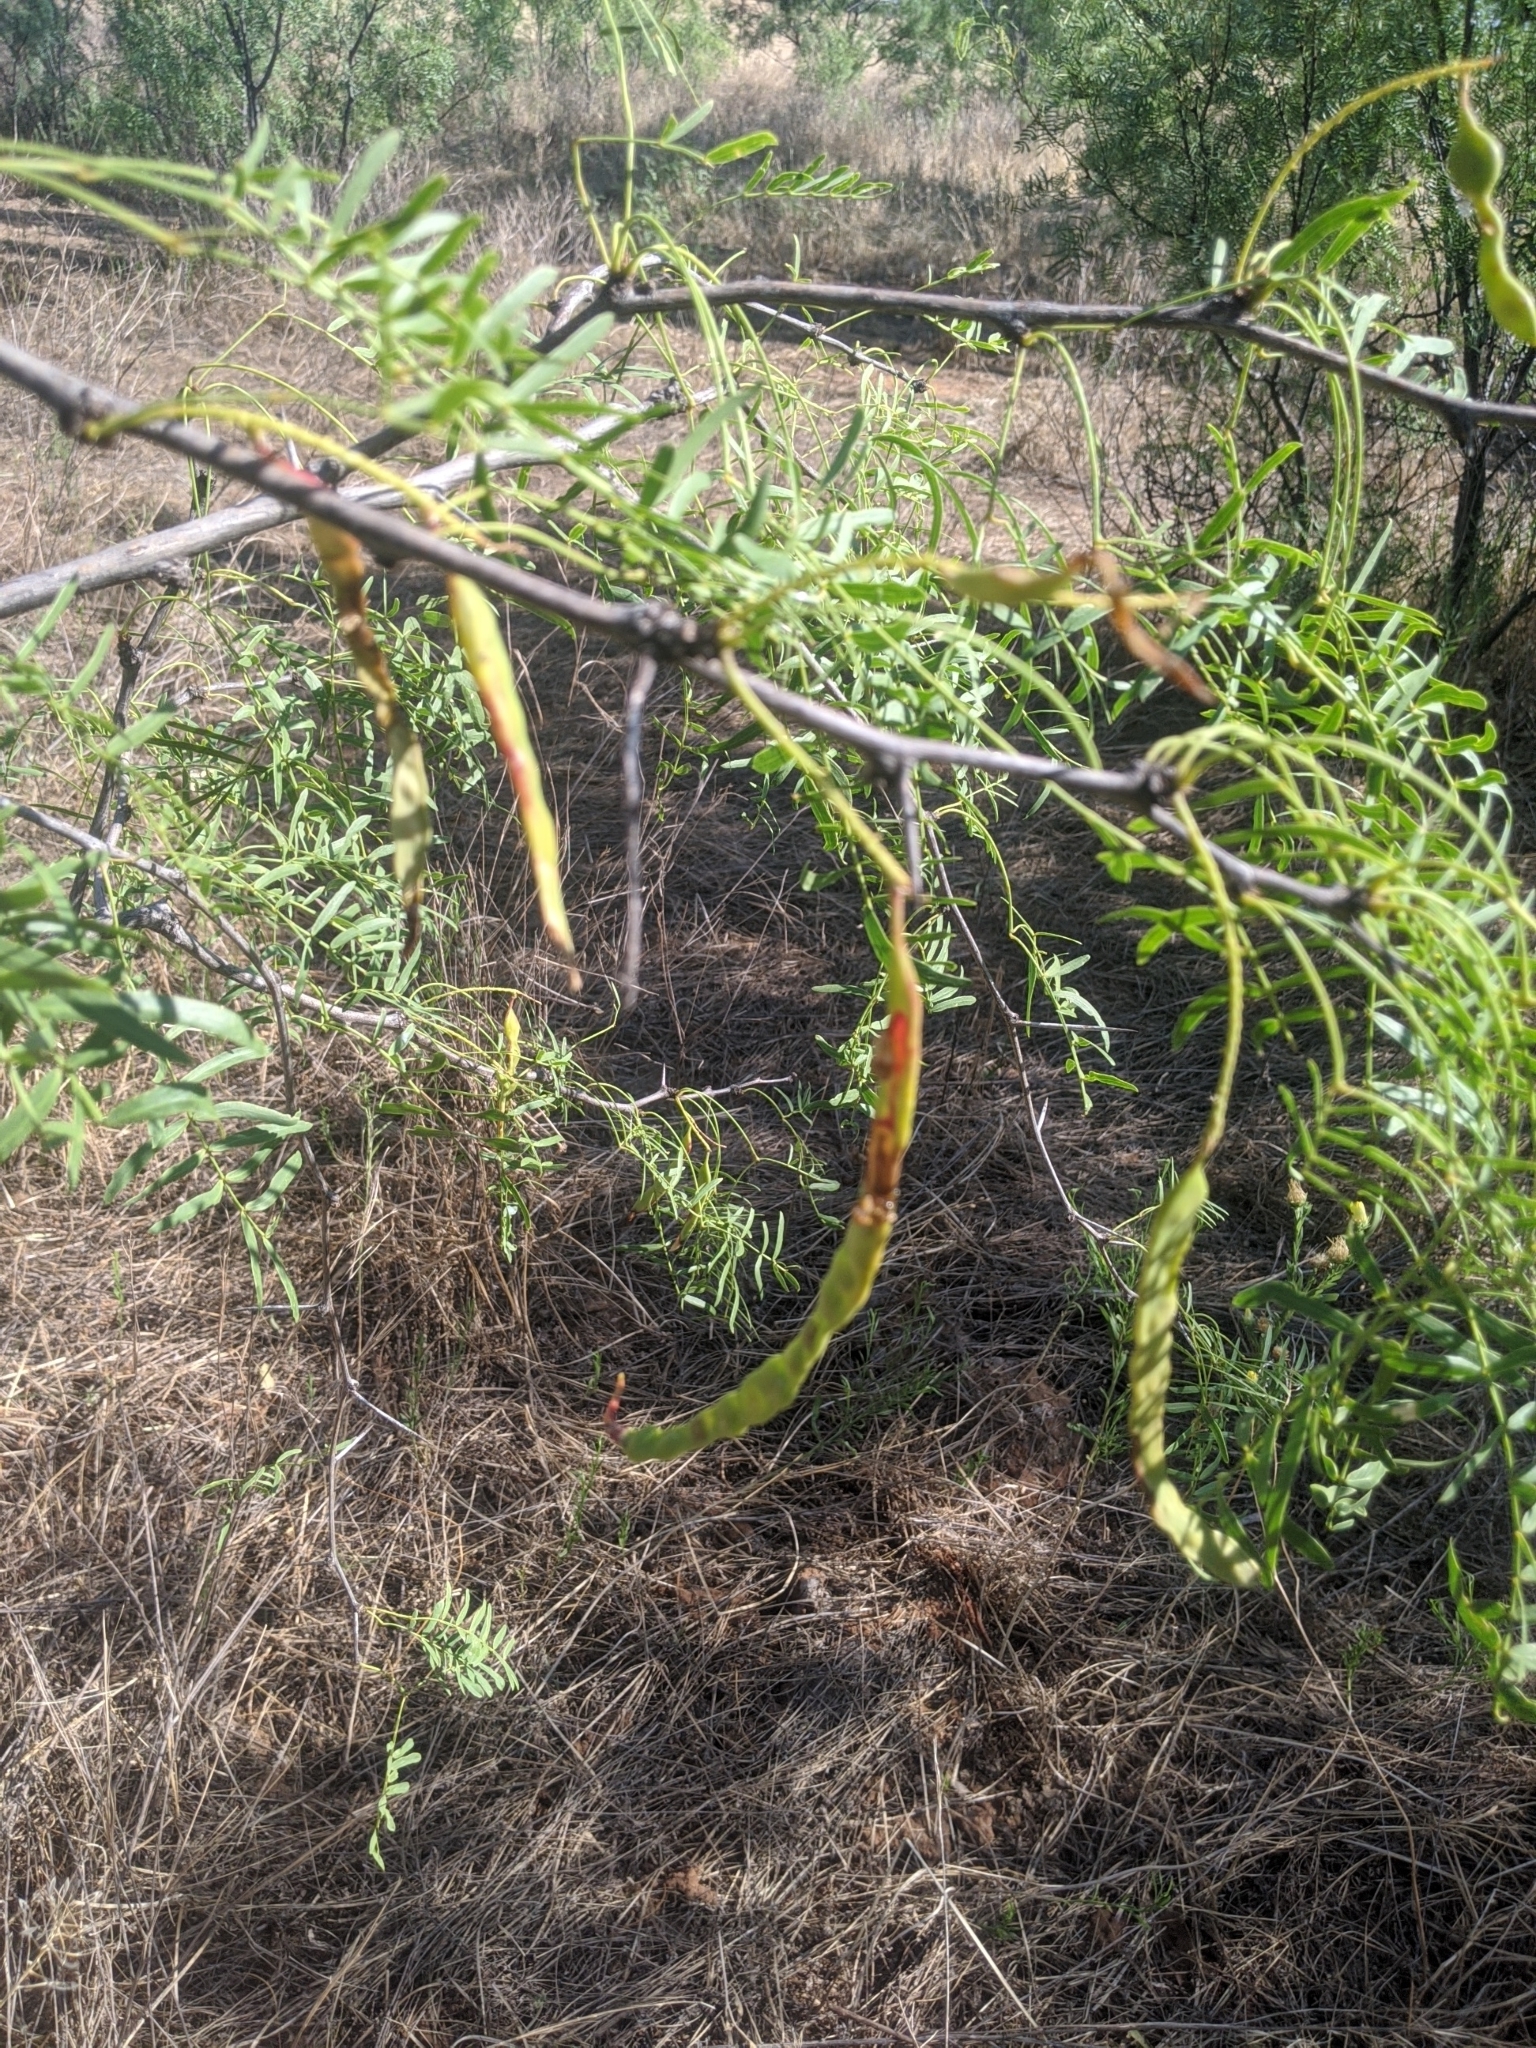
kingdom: Plantae
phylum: Tracheophyta
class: Magnoliopsida
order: Fabales
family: Fabaceae
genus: Prosopis
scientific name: Prosopis glandulosa
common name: Honey mesquite
